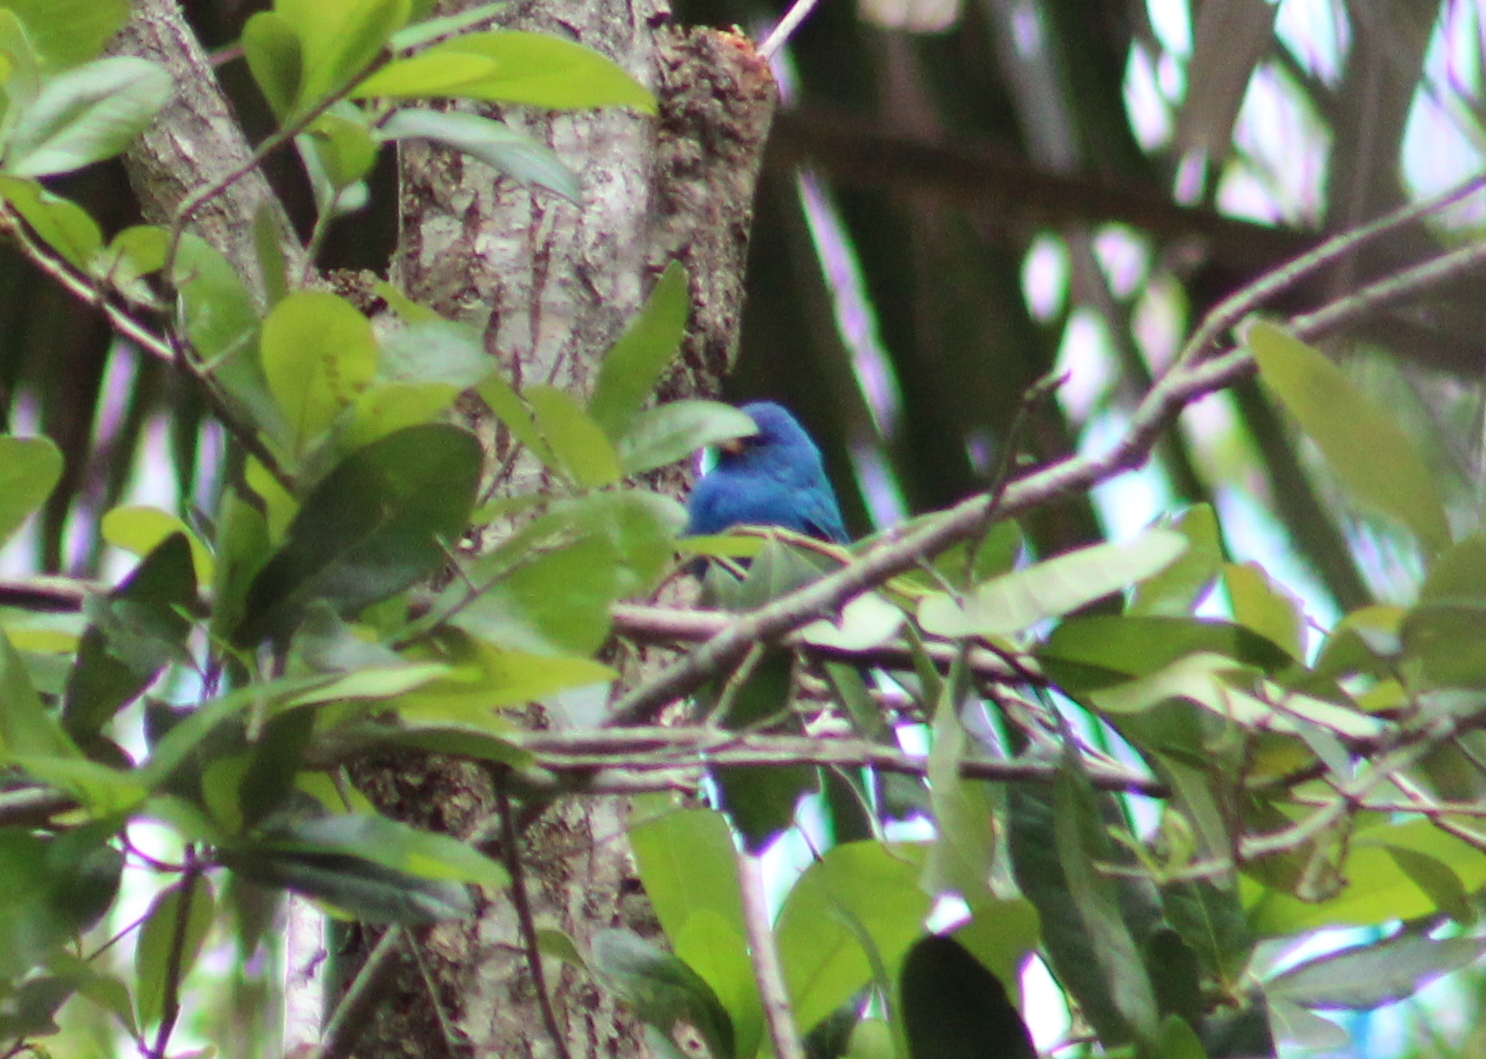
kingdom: Animalia
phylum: Chordata
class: Aves
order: Passeriformes
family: Cardinalidae
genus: Passerina
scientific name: Passerina cyanea
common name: Indigo bunting
